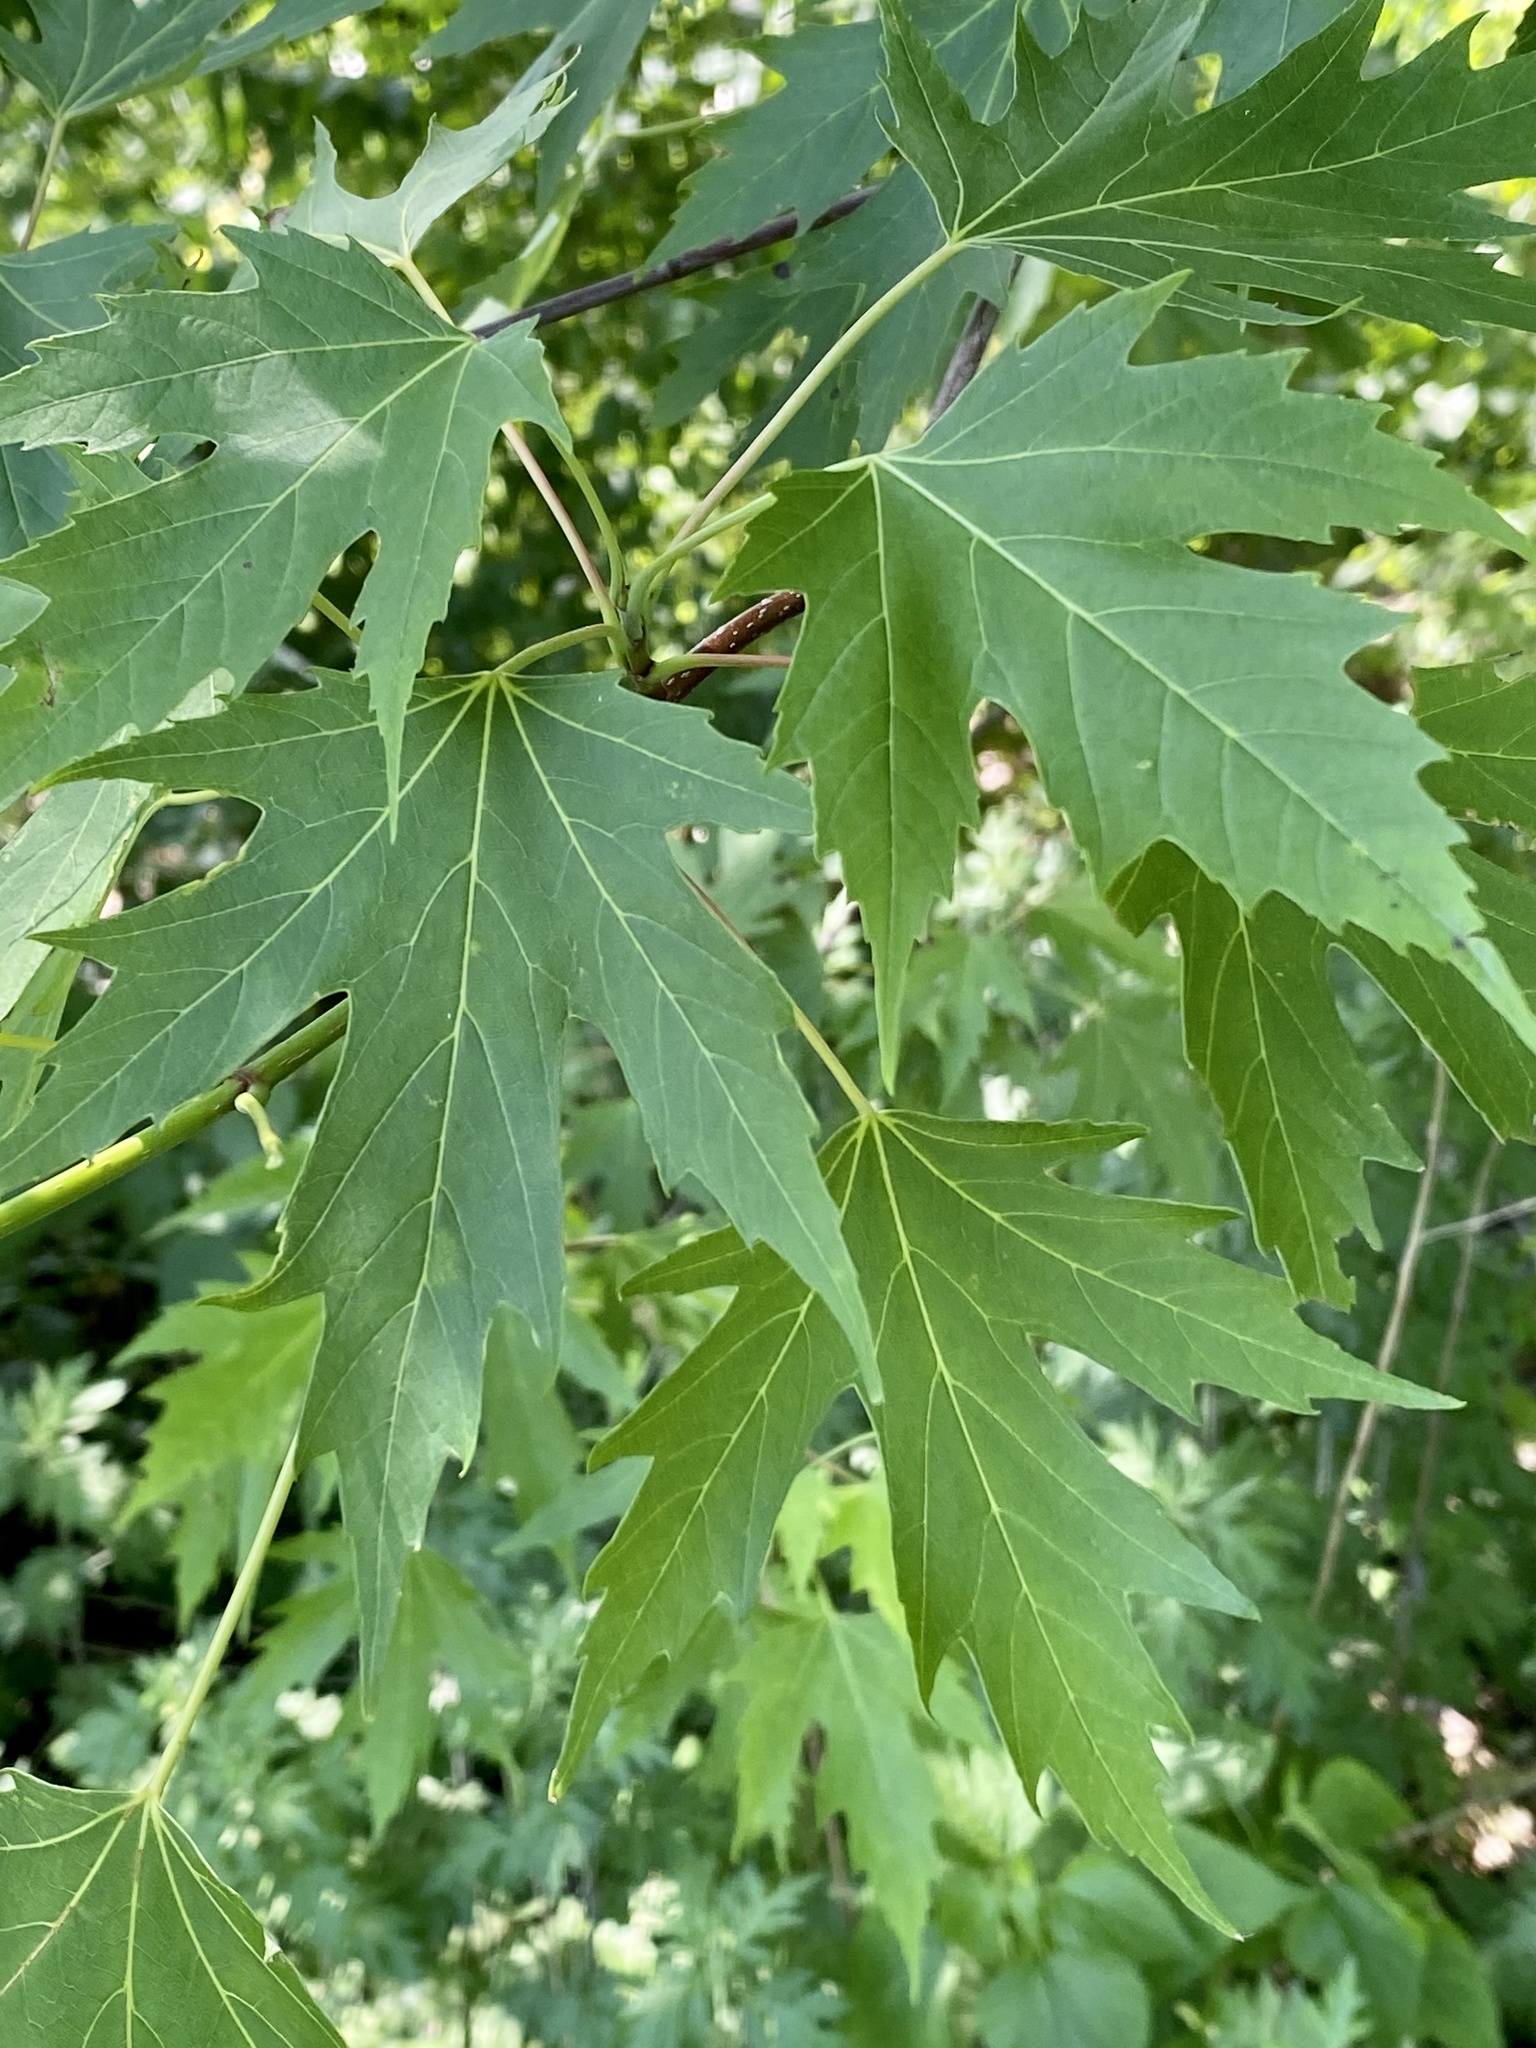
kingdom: Plantae
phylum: Tracheophyta
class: Magnoliopsida
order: Sapindales
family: Sapindaceae
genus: Acer
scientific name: Acer saccharinum
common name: Silver maple
